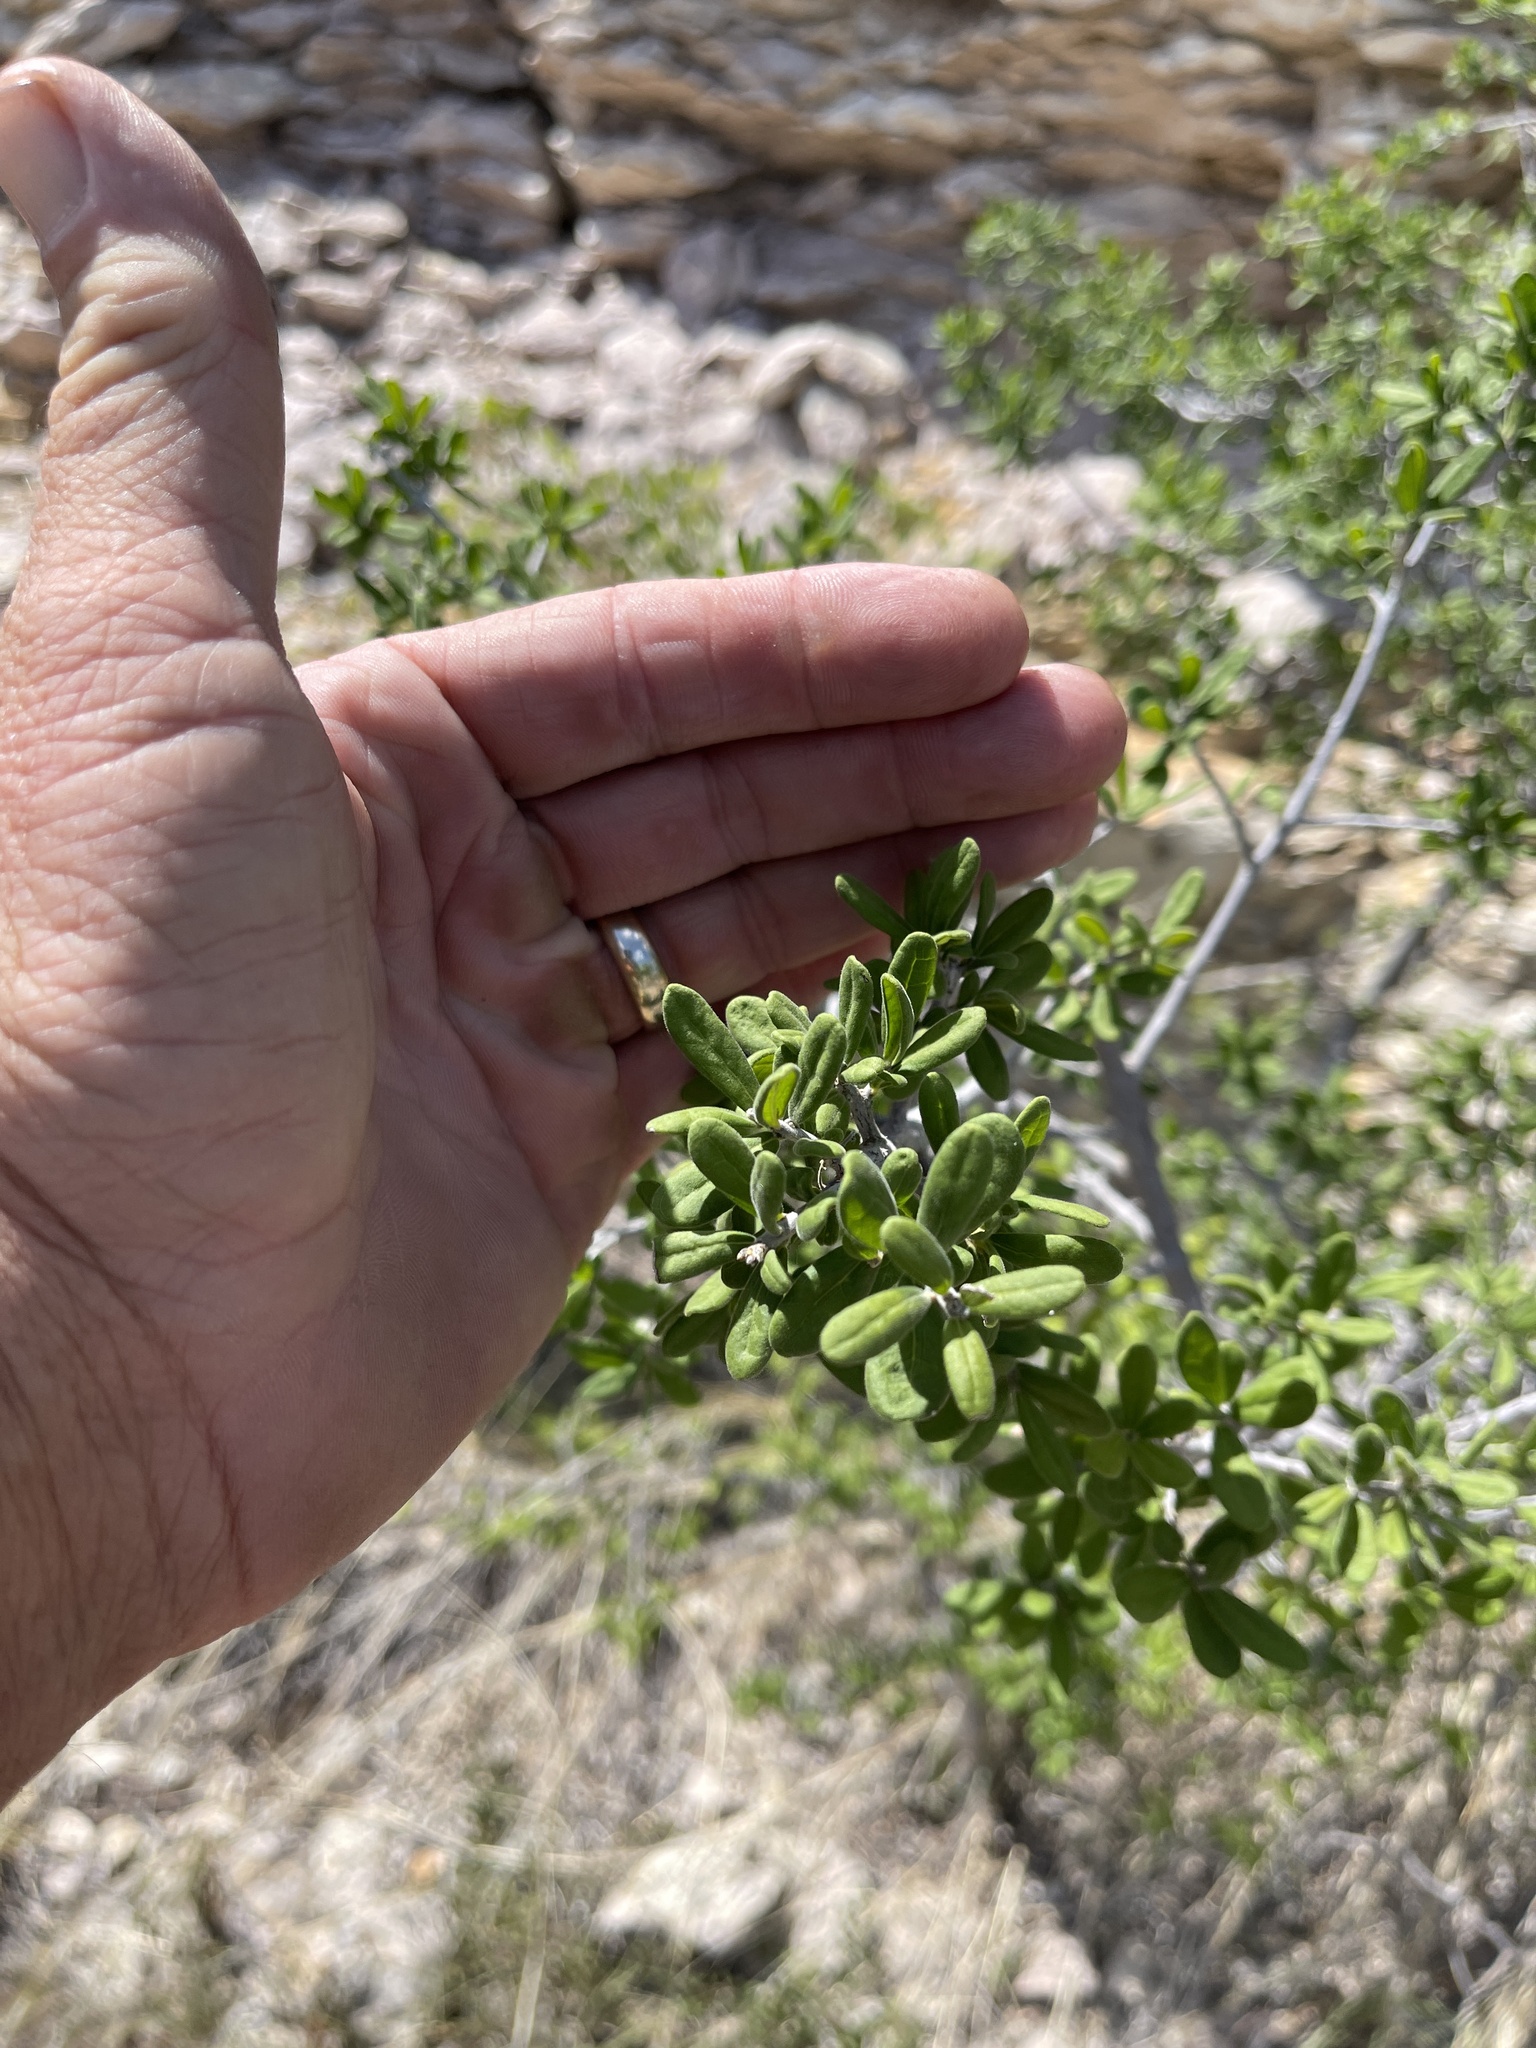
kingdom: Plantae
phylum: Tracheophyta
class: Magnoliopsida
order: Ericales
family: Ebenaceae
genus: Diospyros
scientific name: Diospyros texana
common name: Texas persimmon
